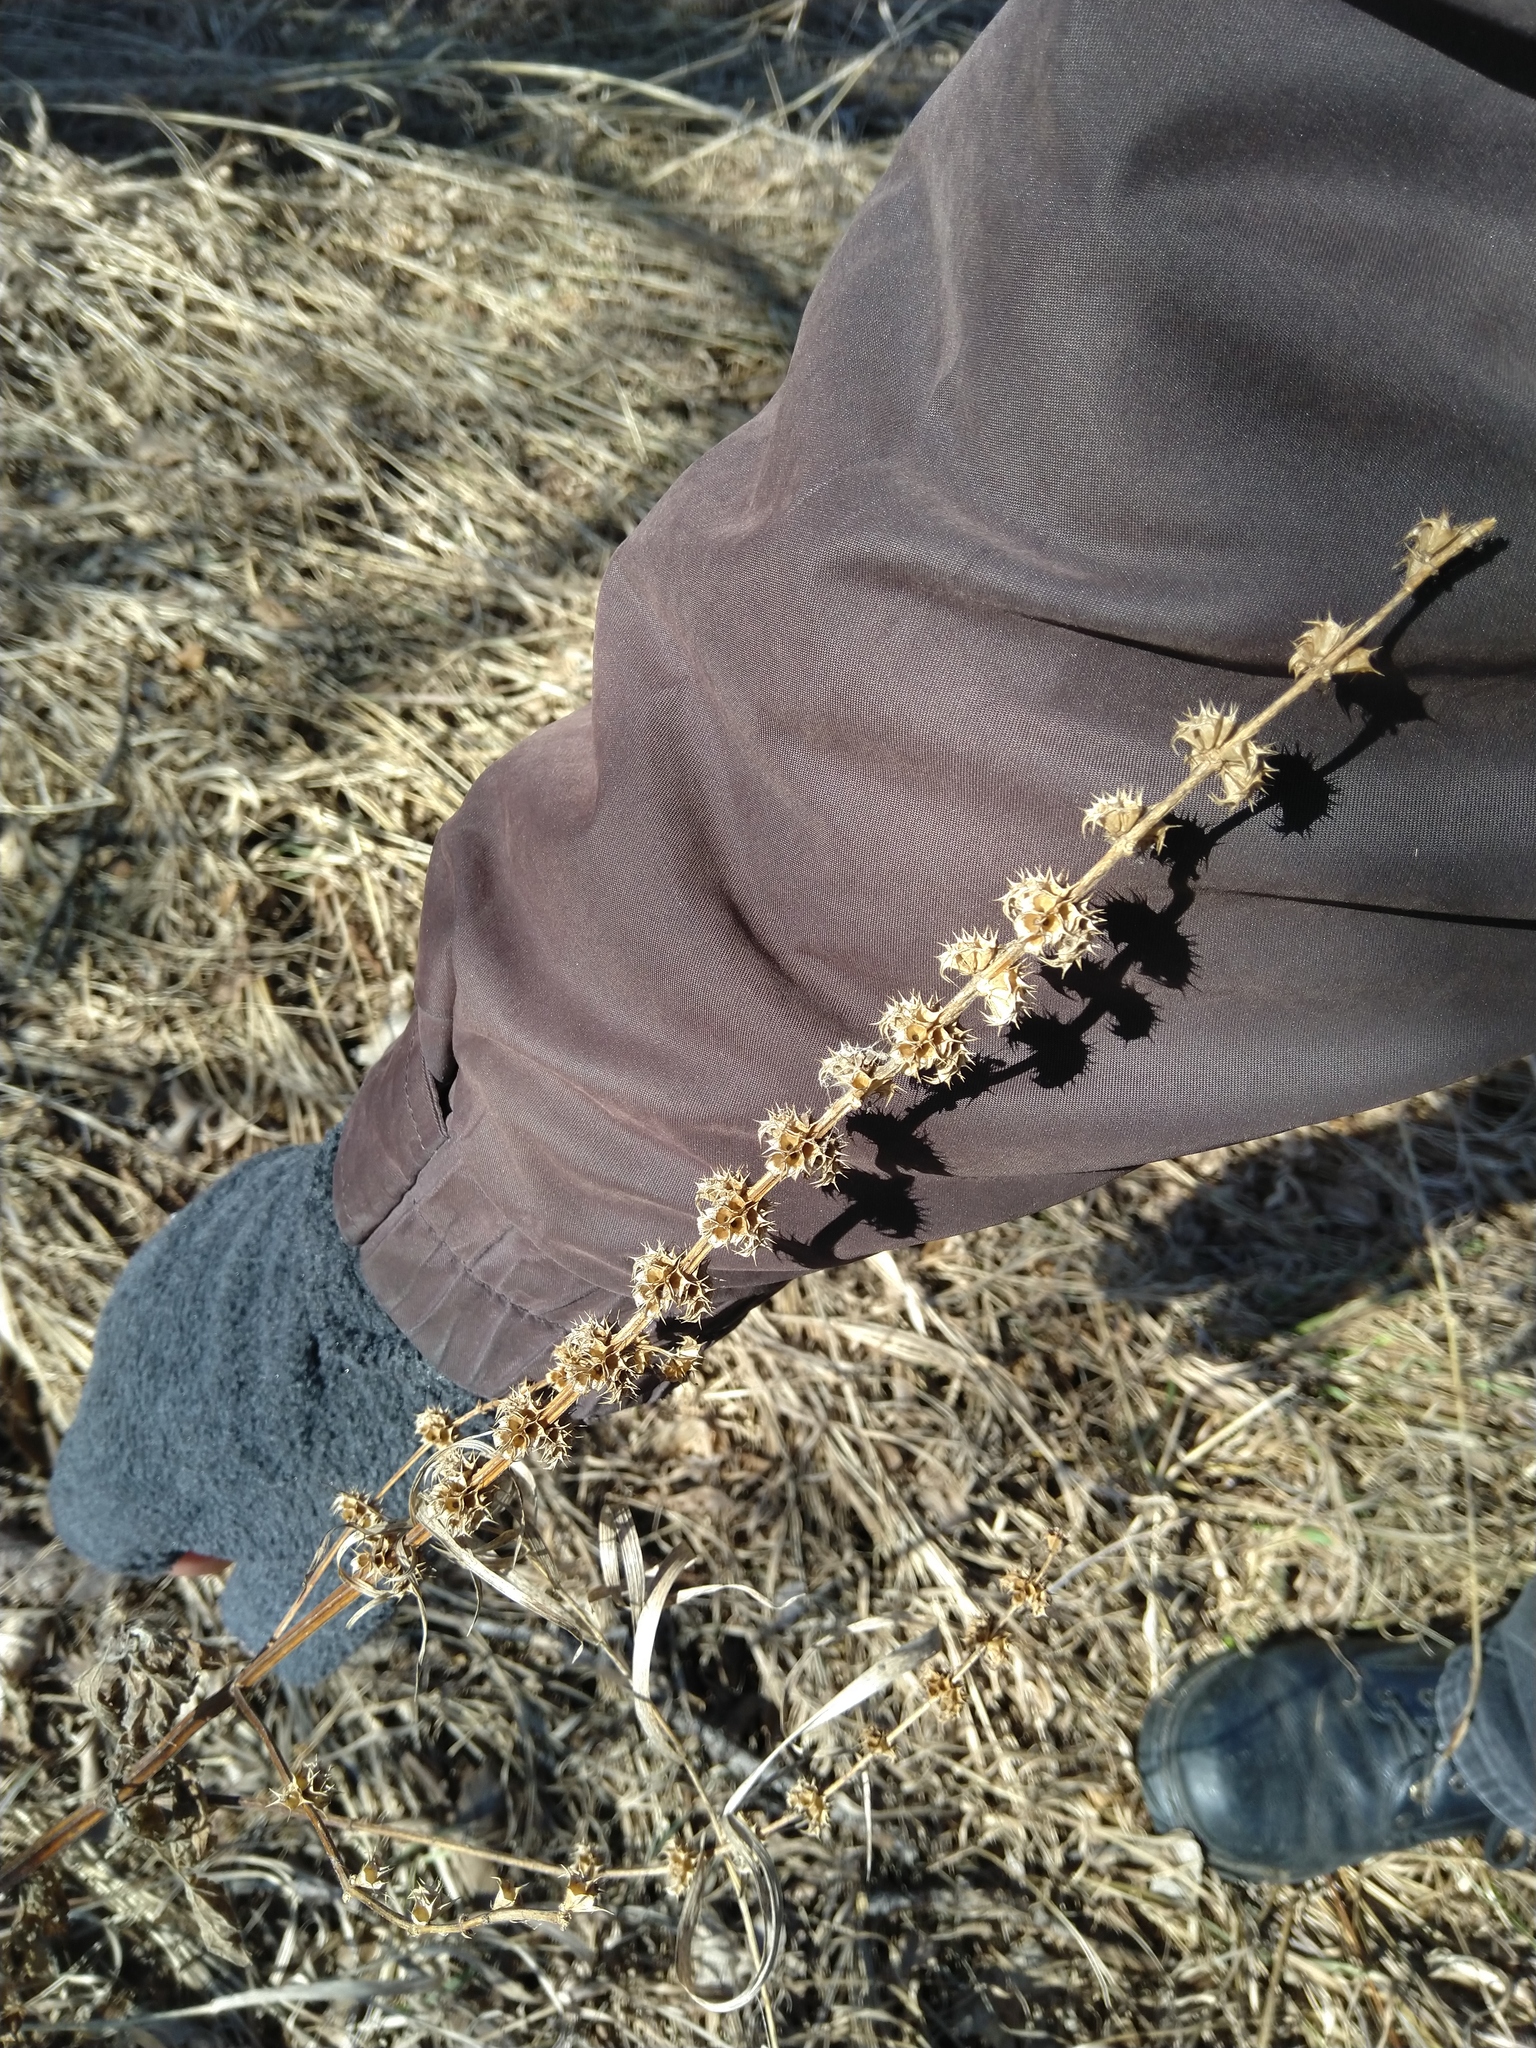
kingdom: Plantae
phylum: Tracheophyta
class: Magnoliopsida
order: Lamiales
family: Lamiaceae
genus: Leonurus
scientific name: Leonurus cardiaca
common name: Motherwort
